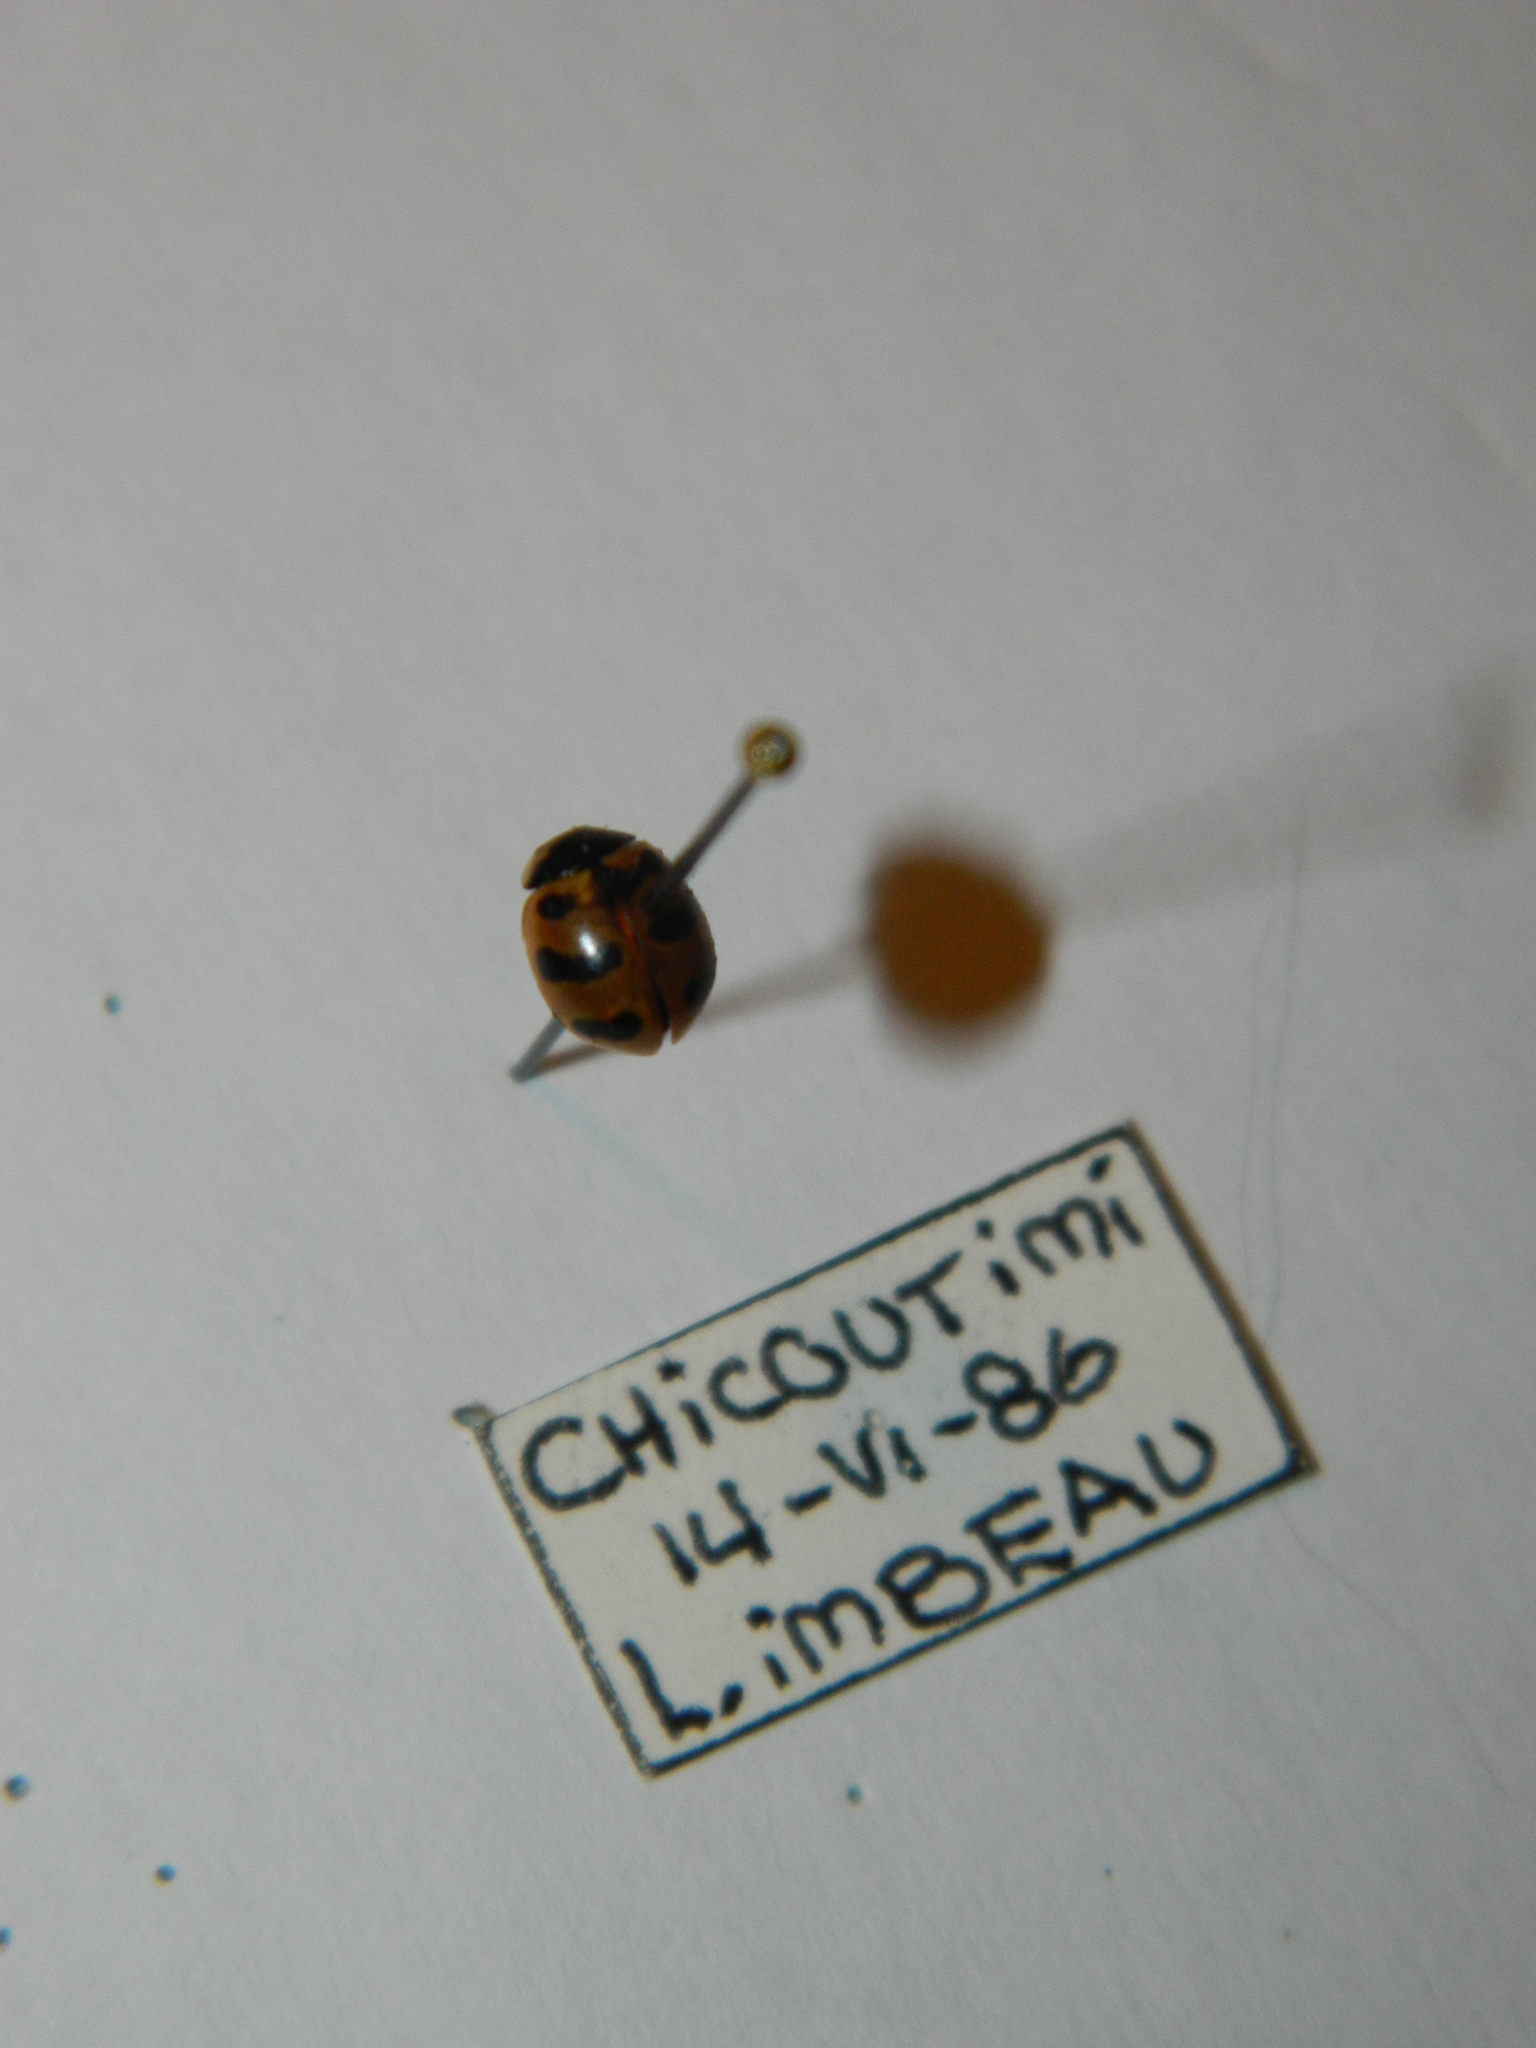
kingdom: Animalia
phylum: Arthropoda
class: Insecta
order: Coleoptera
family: Coccinellidae
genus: Coccinella
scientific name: Coccinella trifasciata
